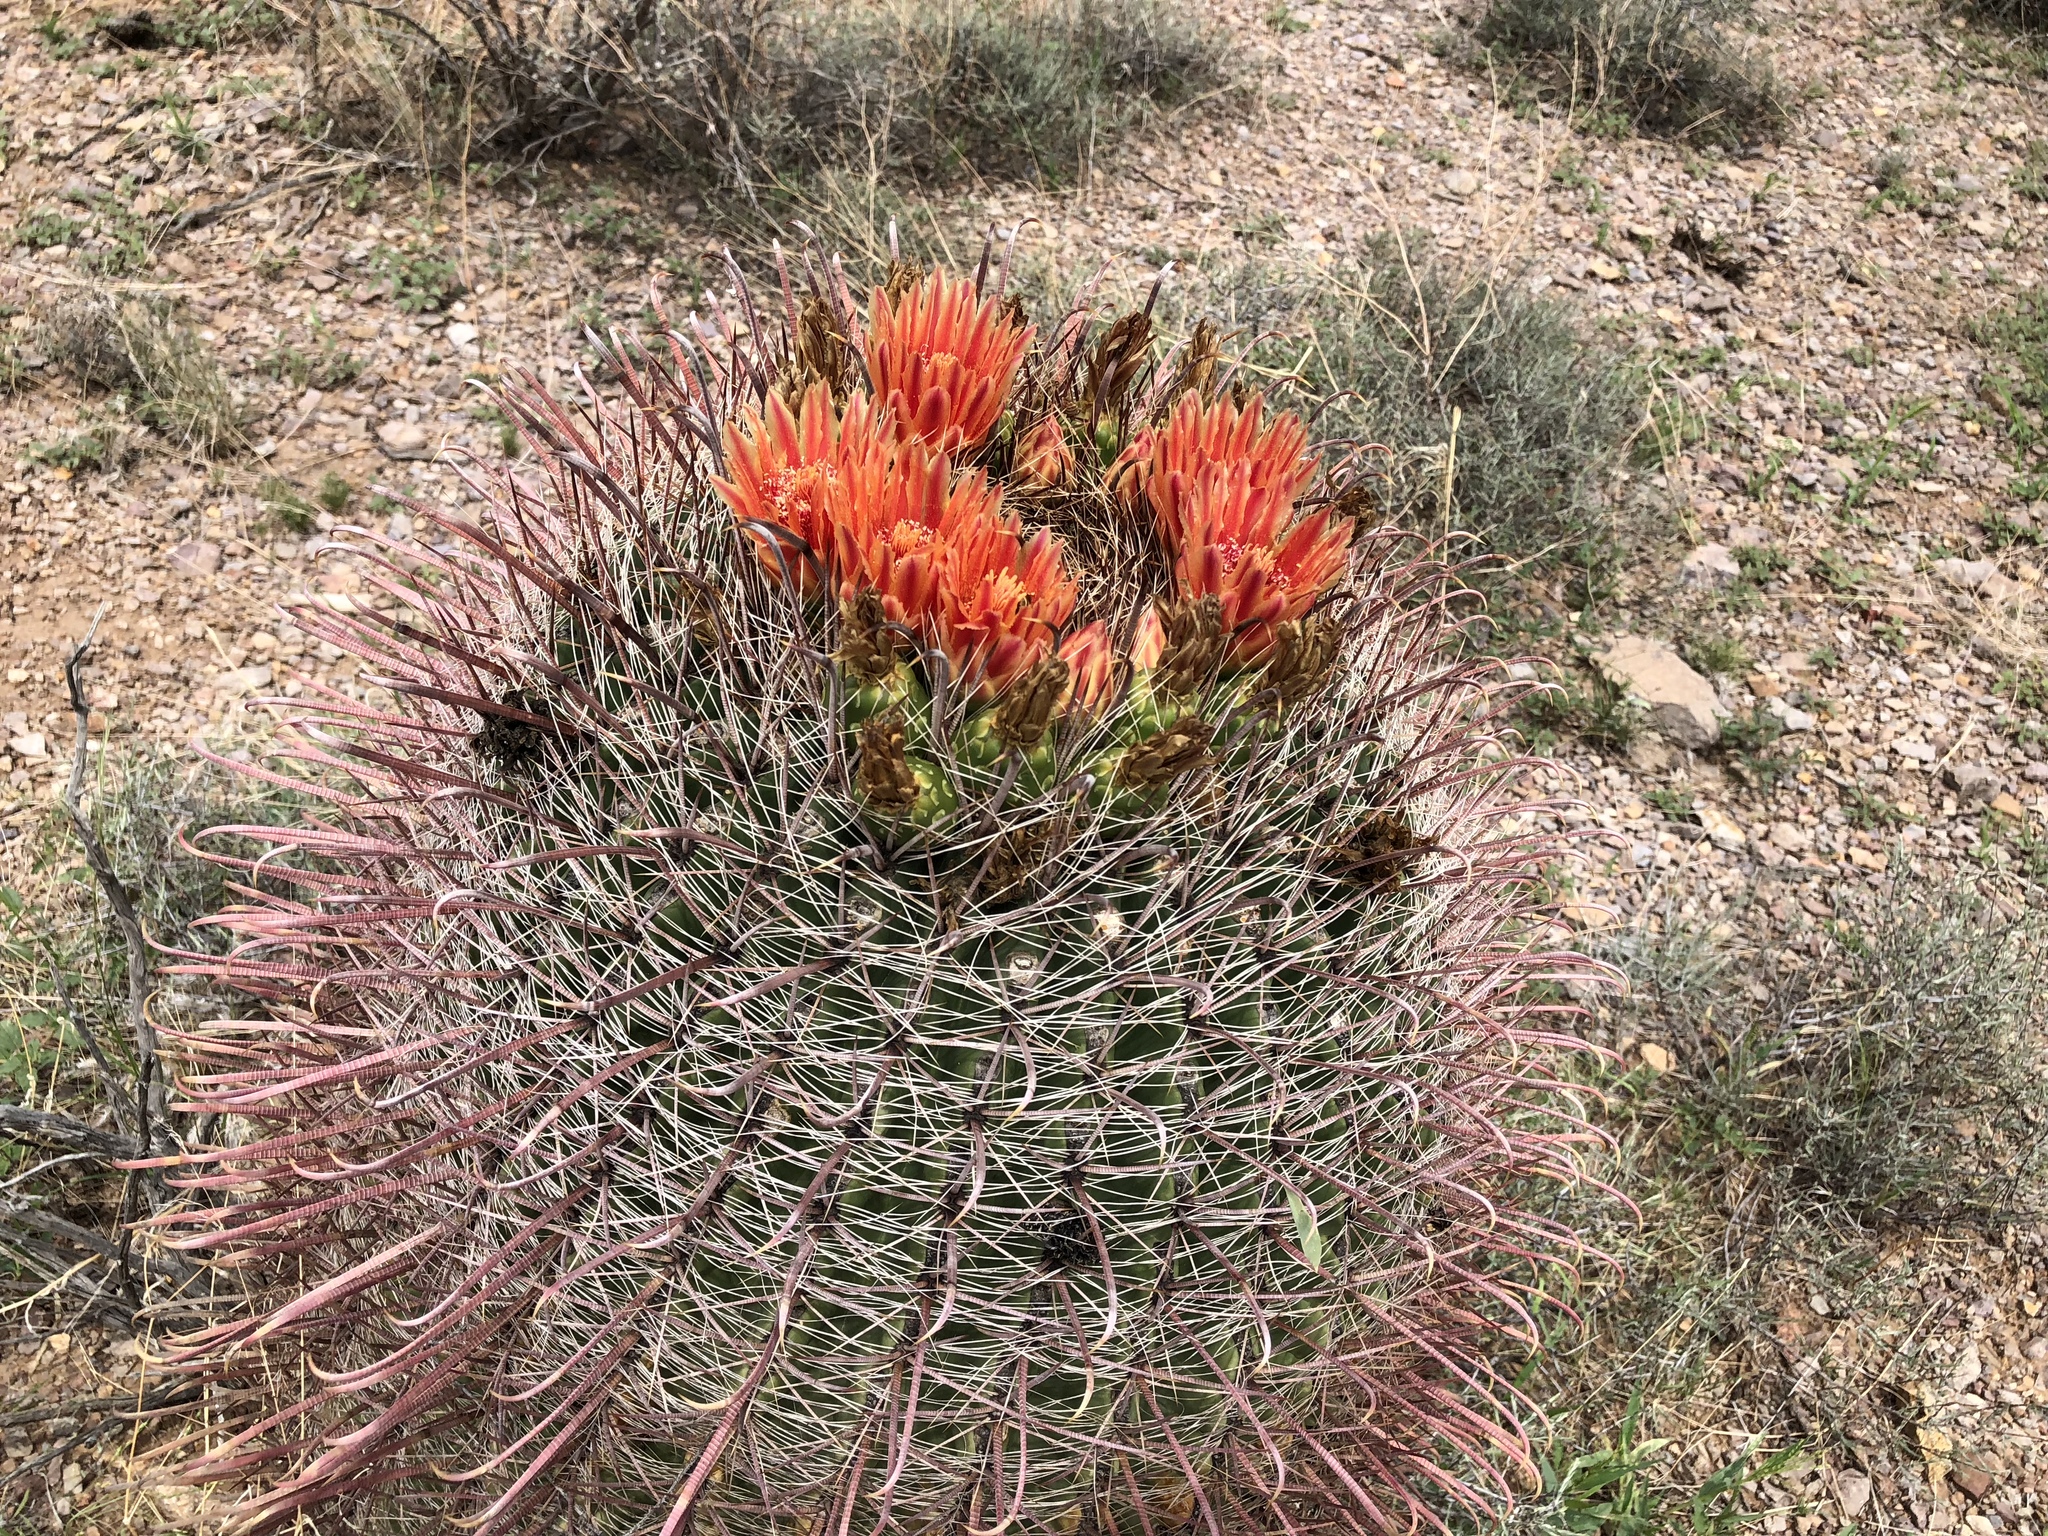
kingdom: Plantae
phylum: Tracheophyta
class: Magnoliopsida
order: Caryophyllales
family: Cactaceae
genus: Ferocactus
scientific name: Ferocactus wislizeni
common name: Candy barrel cactus
